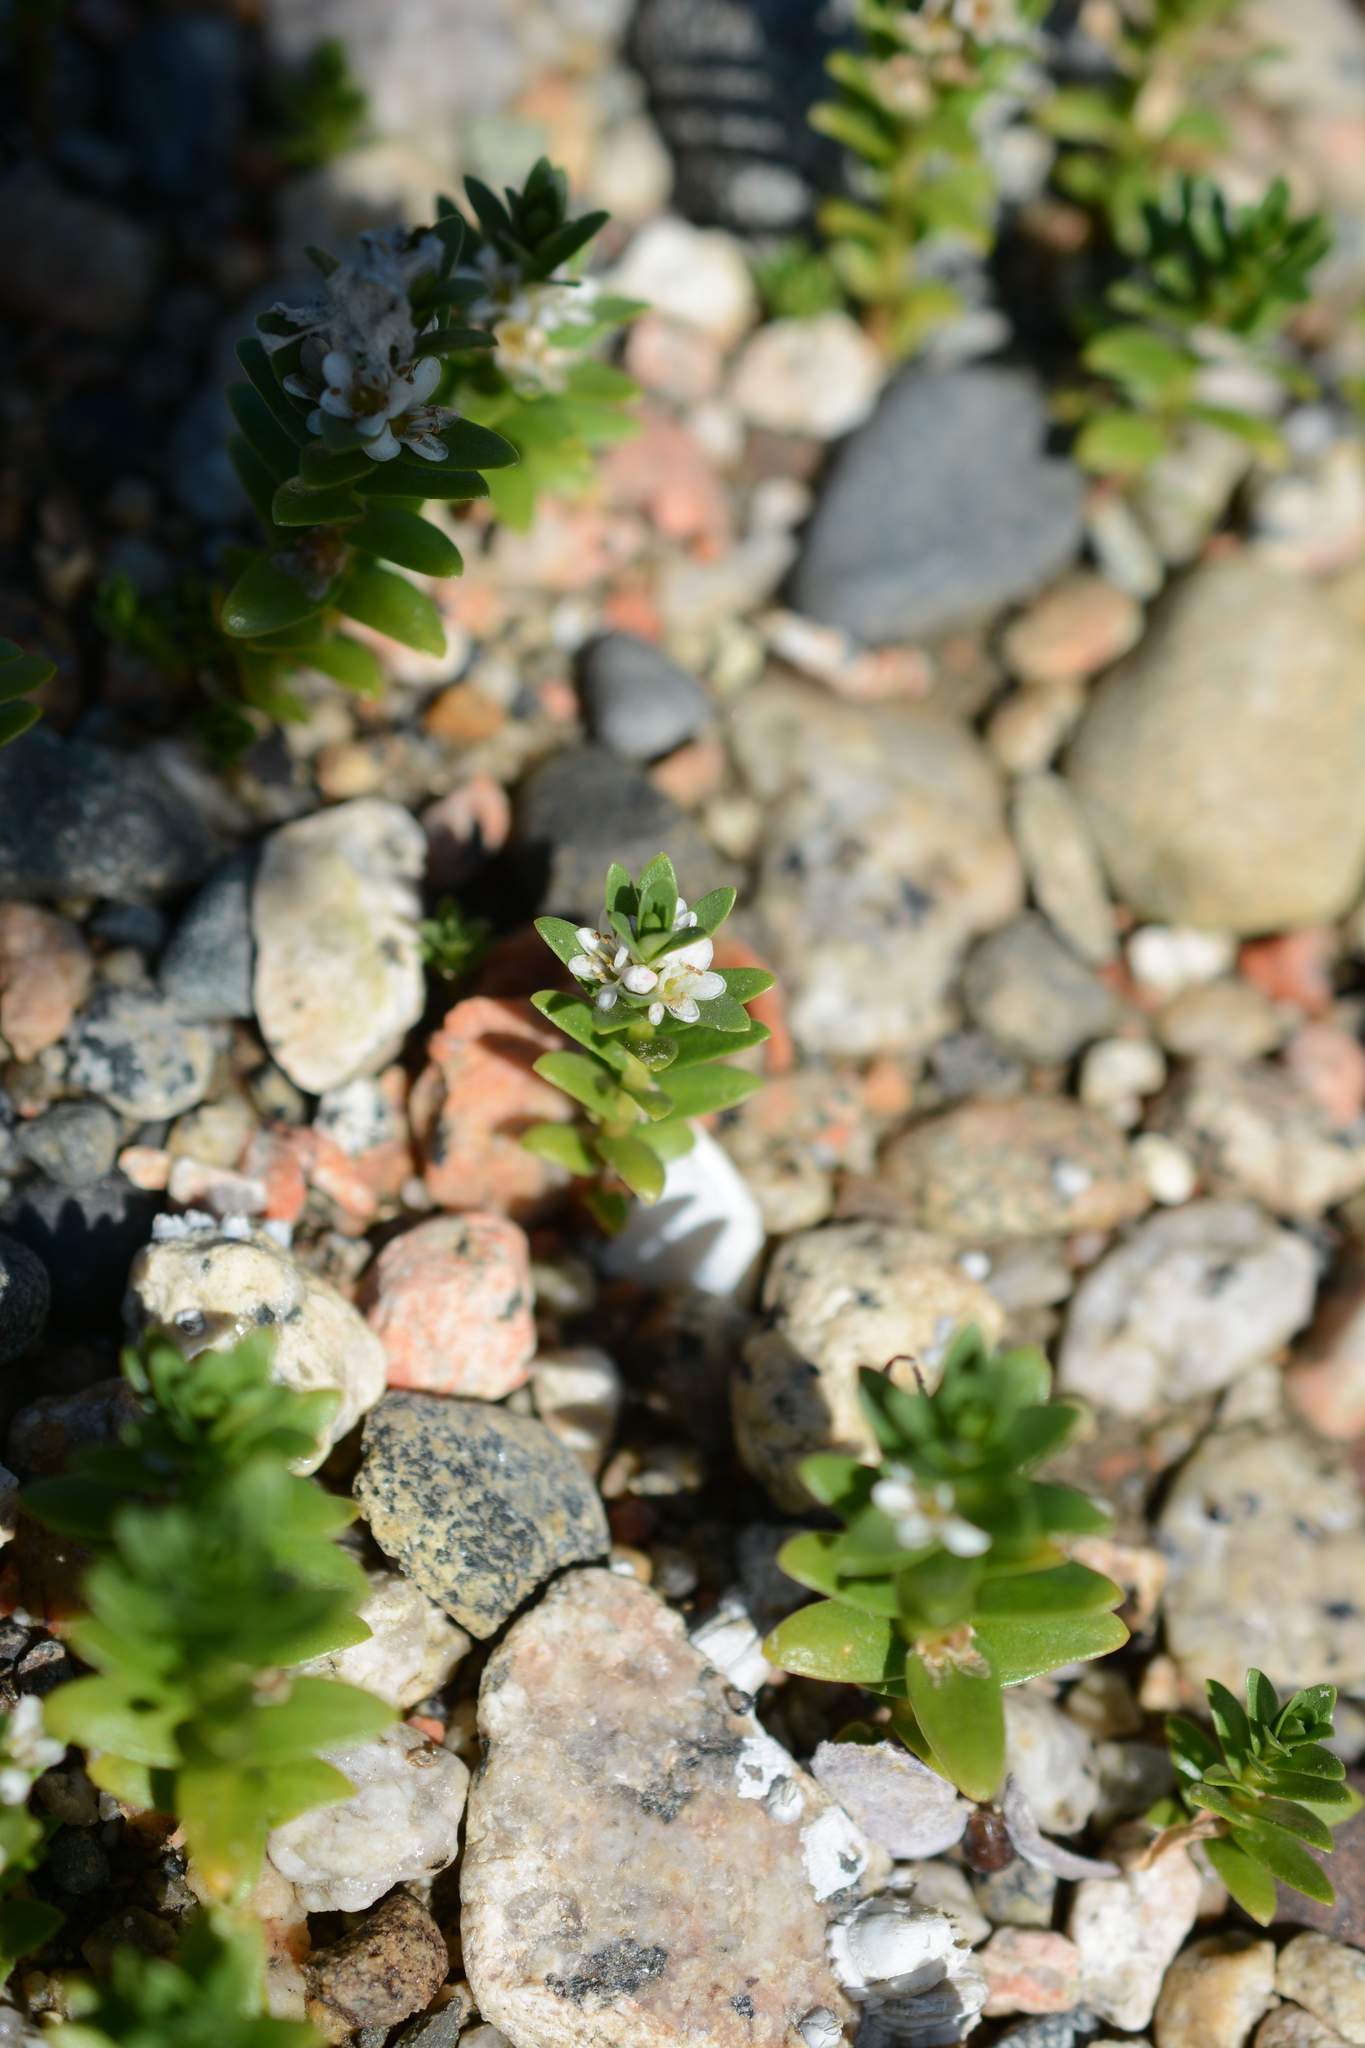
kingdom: Plantae
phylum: Tracheophyta
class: Magnoliopsida
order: Ericales
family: Primulaceae
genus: Lysimachia
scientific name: Lysimachia maritima
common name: Sea milkwort
